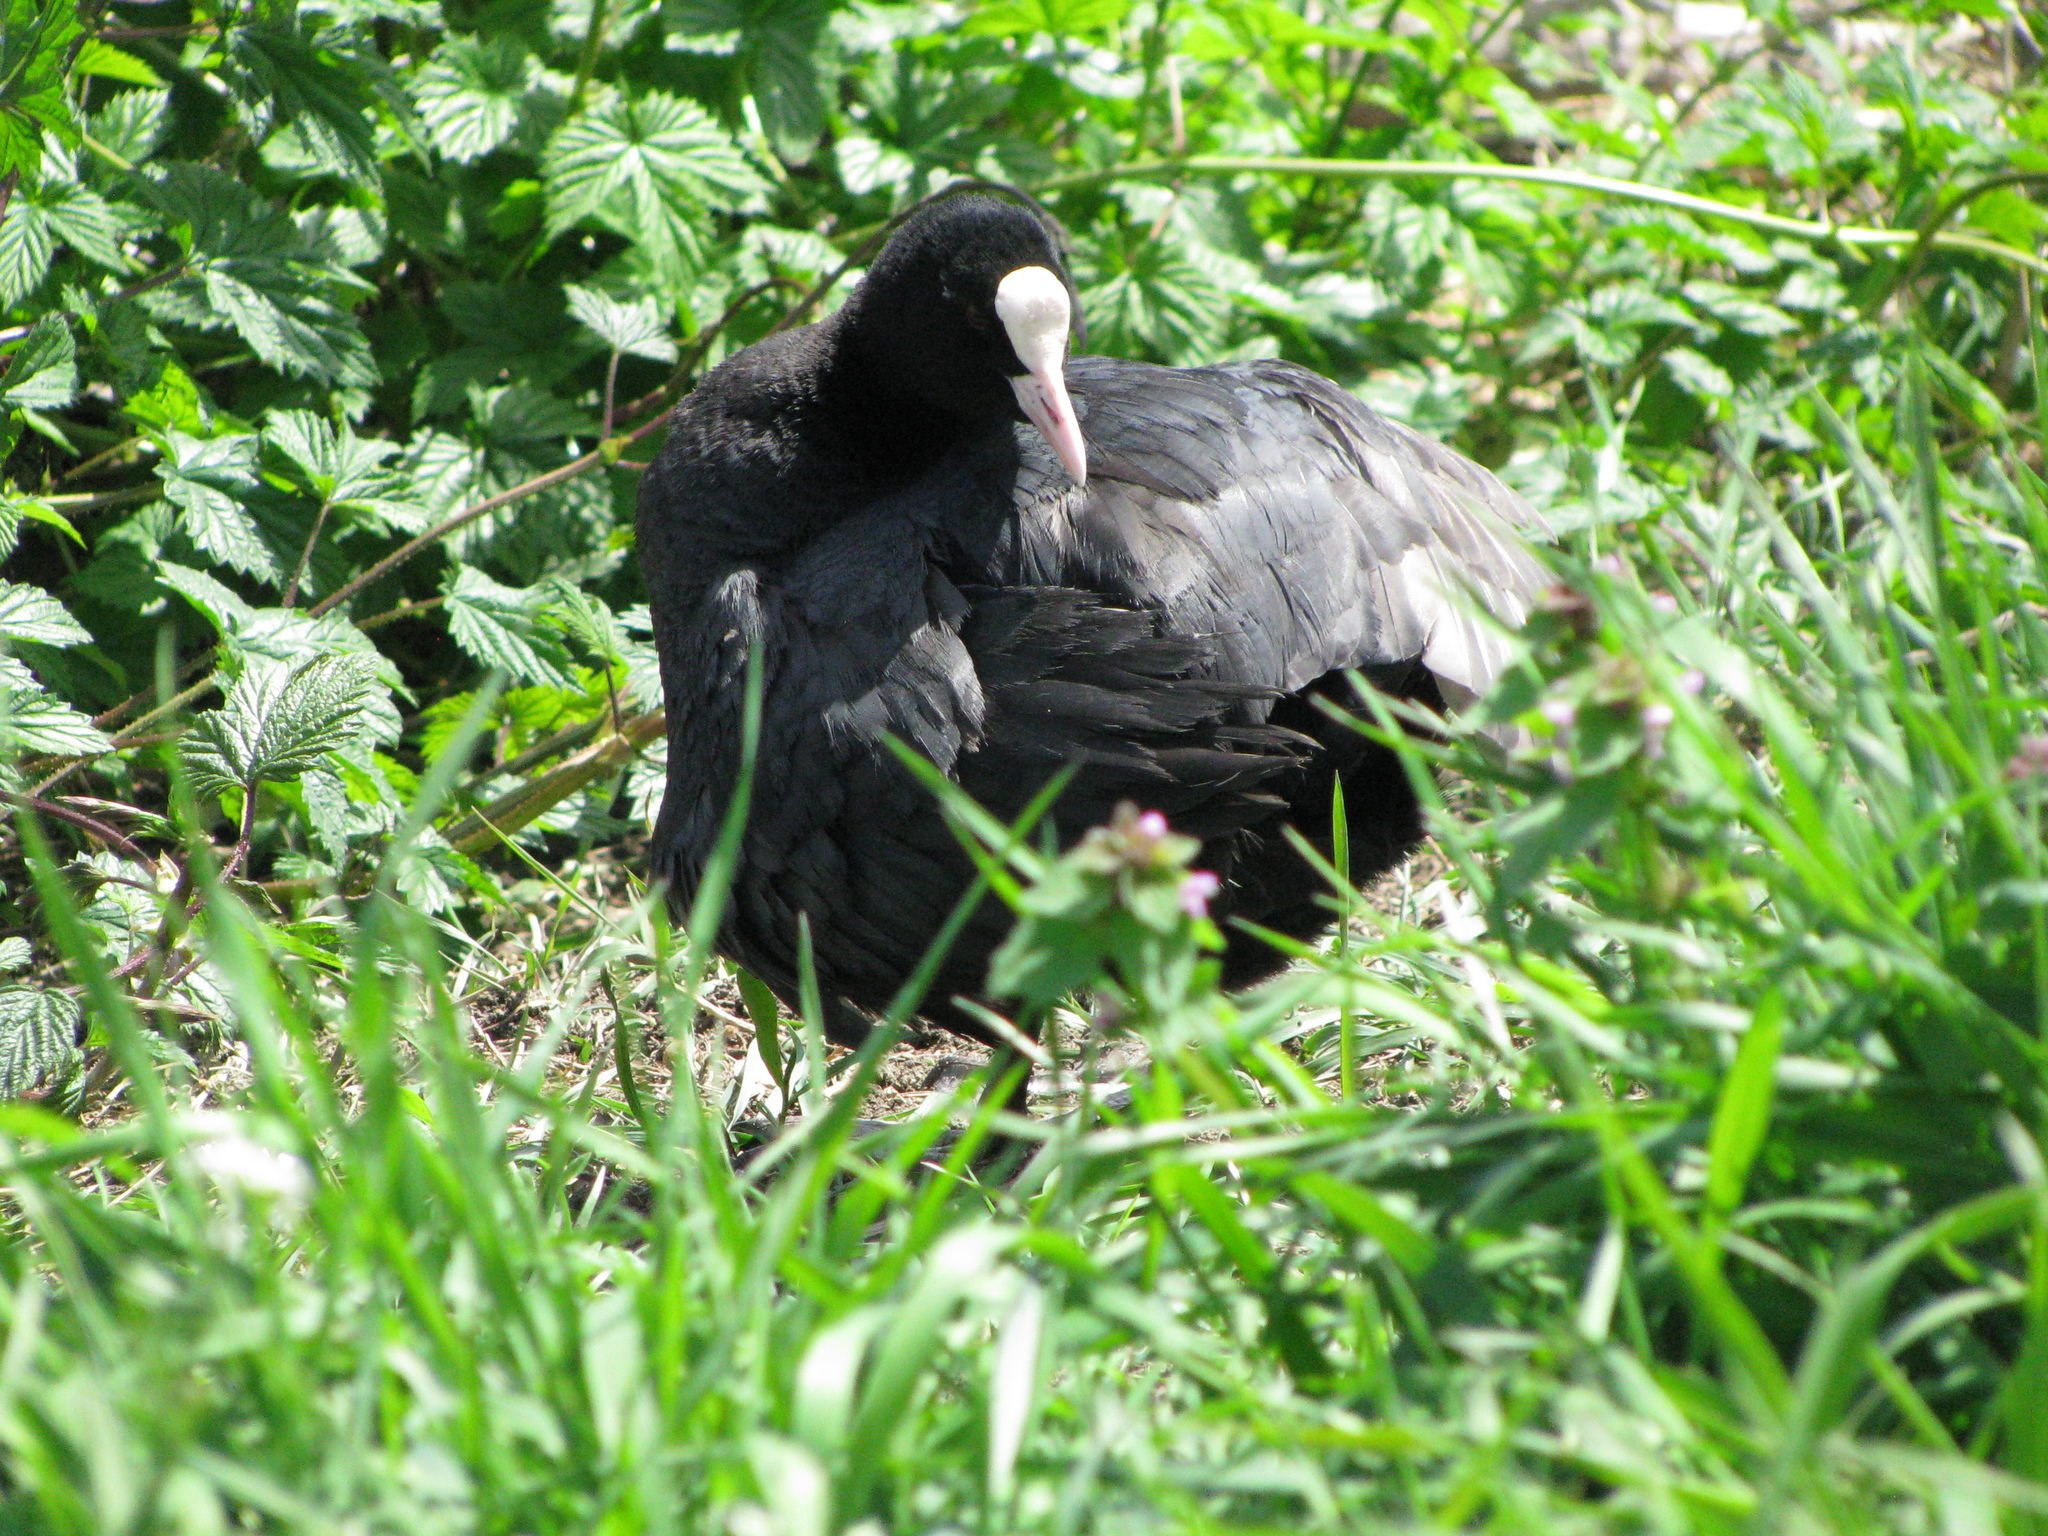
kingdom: Animalia
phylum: Chordata
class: Aves
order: Gruiformes
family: Rallidae
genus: Fulica
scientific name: Fulica atra
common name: Eurasian coot
